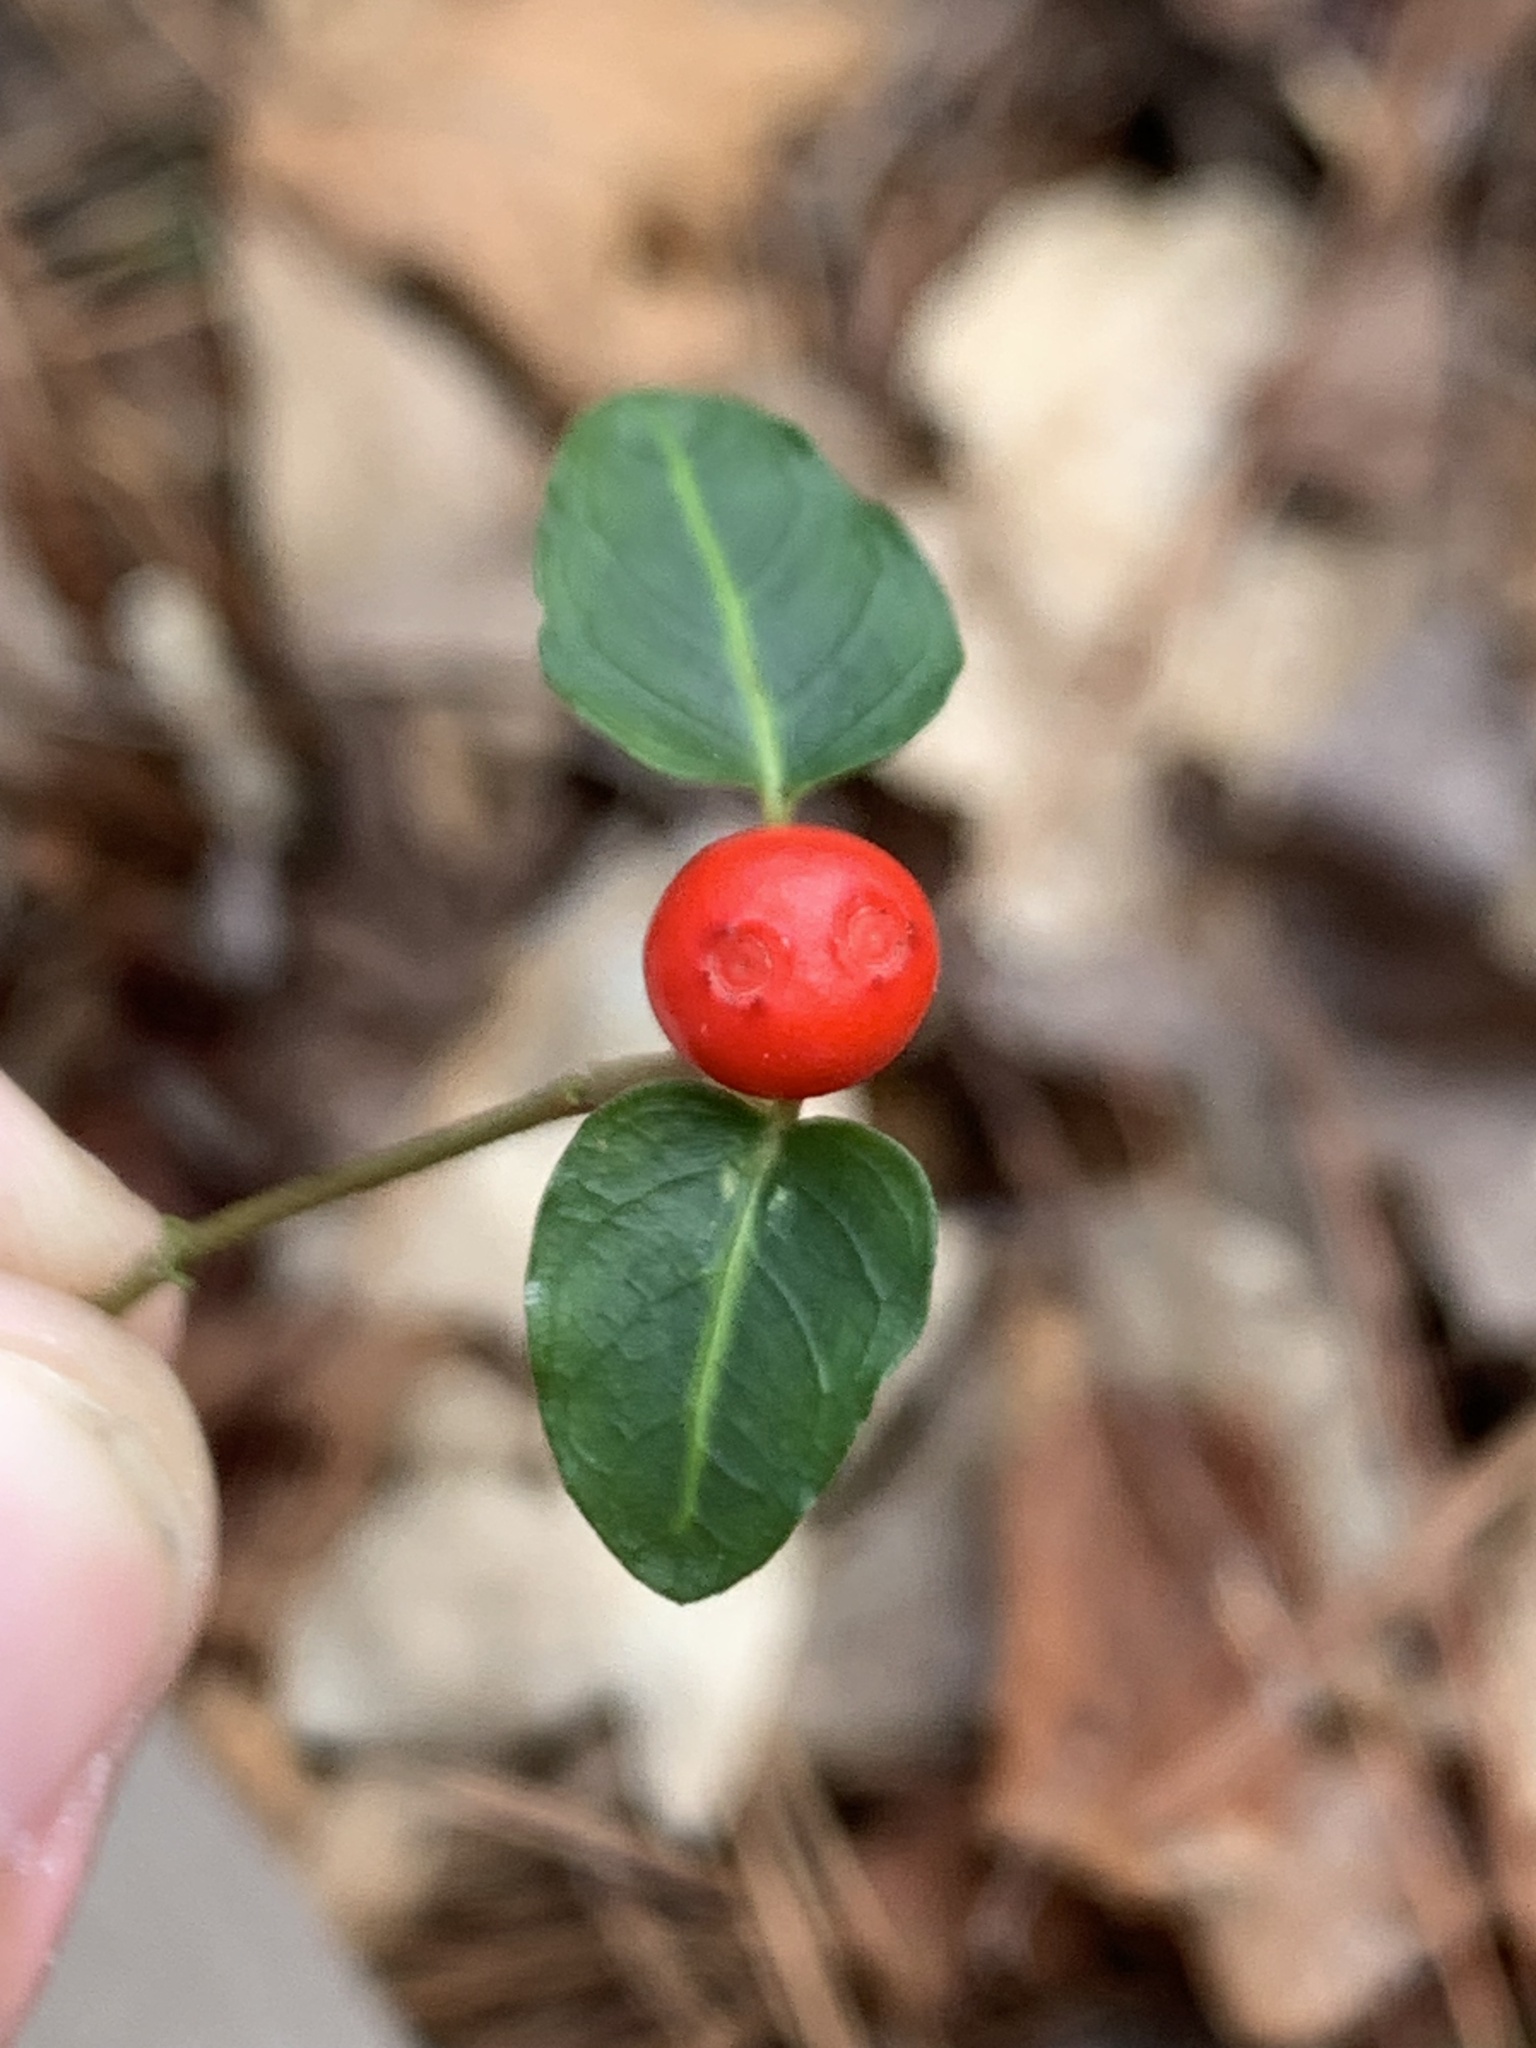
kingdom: Plantae
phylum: Tracheophyta
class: Magnoliopsida
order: Gentianales
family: Rubiaceae
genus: Mitchella
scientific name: Mitchella repens
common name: Partridge-berry
